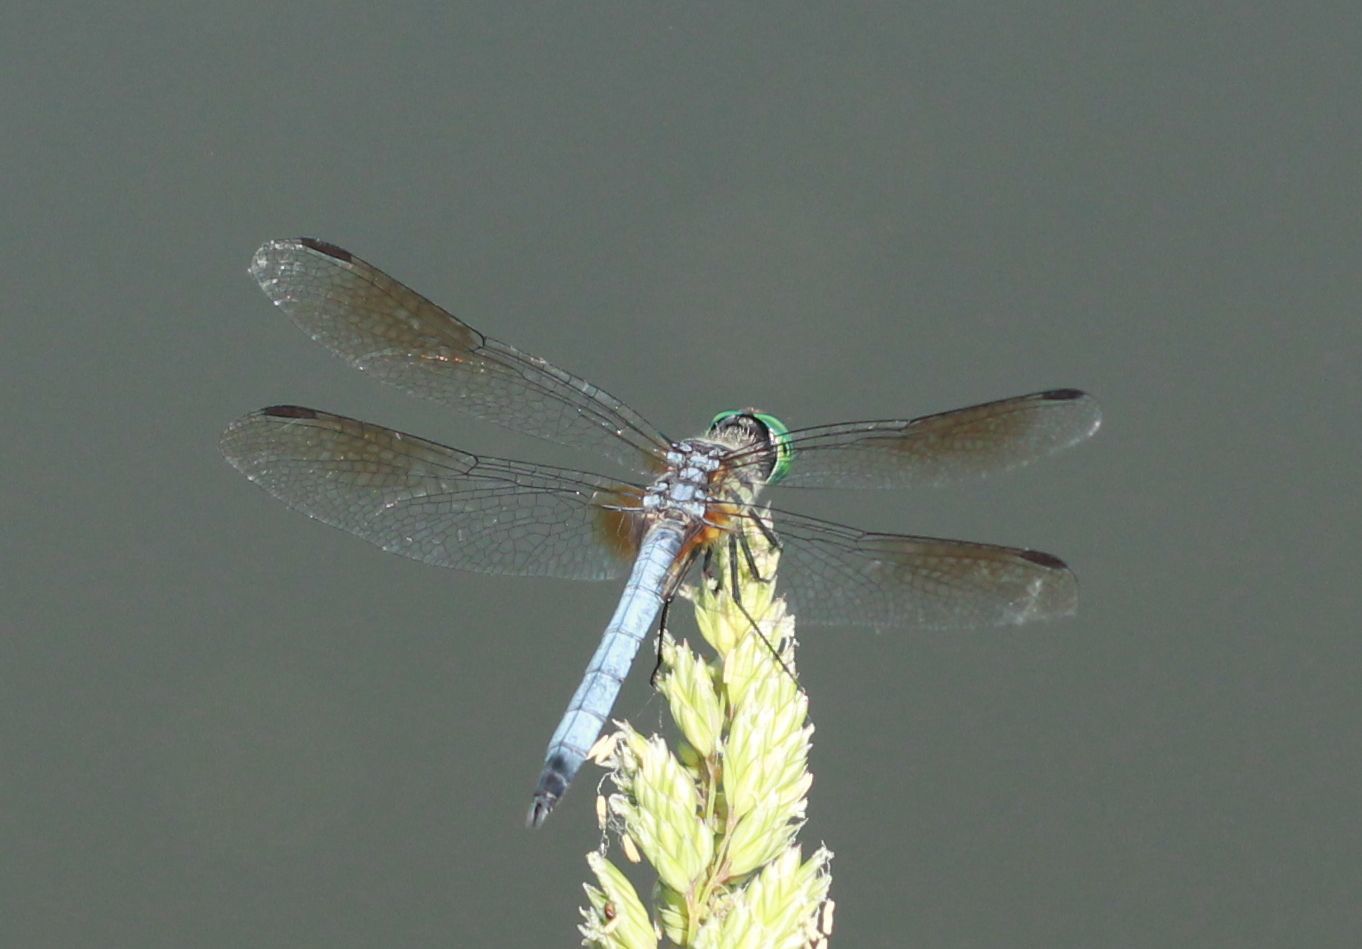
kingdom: Animalia
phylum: Arthropoda
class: Insecta
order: Odonata
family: Libellulidae
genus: Pachydiplax
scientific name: Pachydiplax longipennis
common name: Blue dasher
